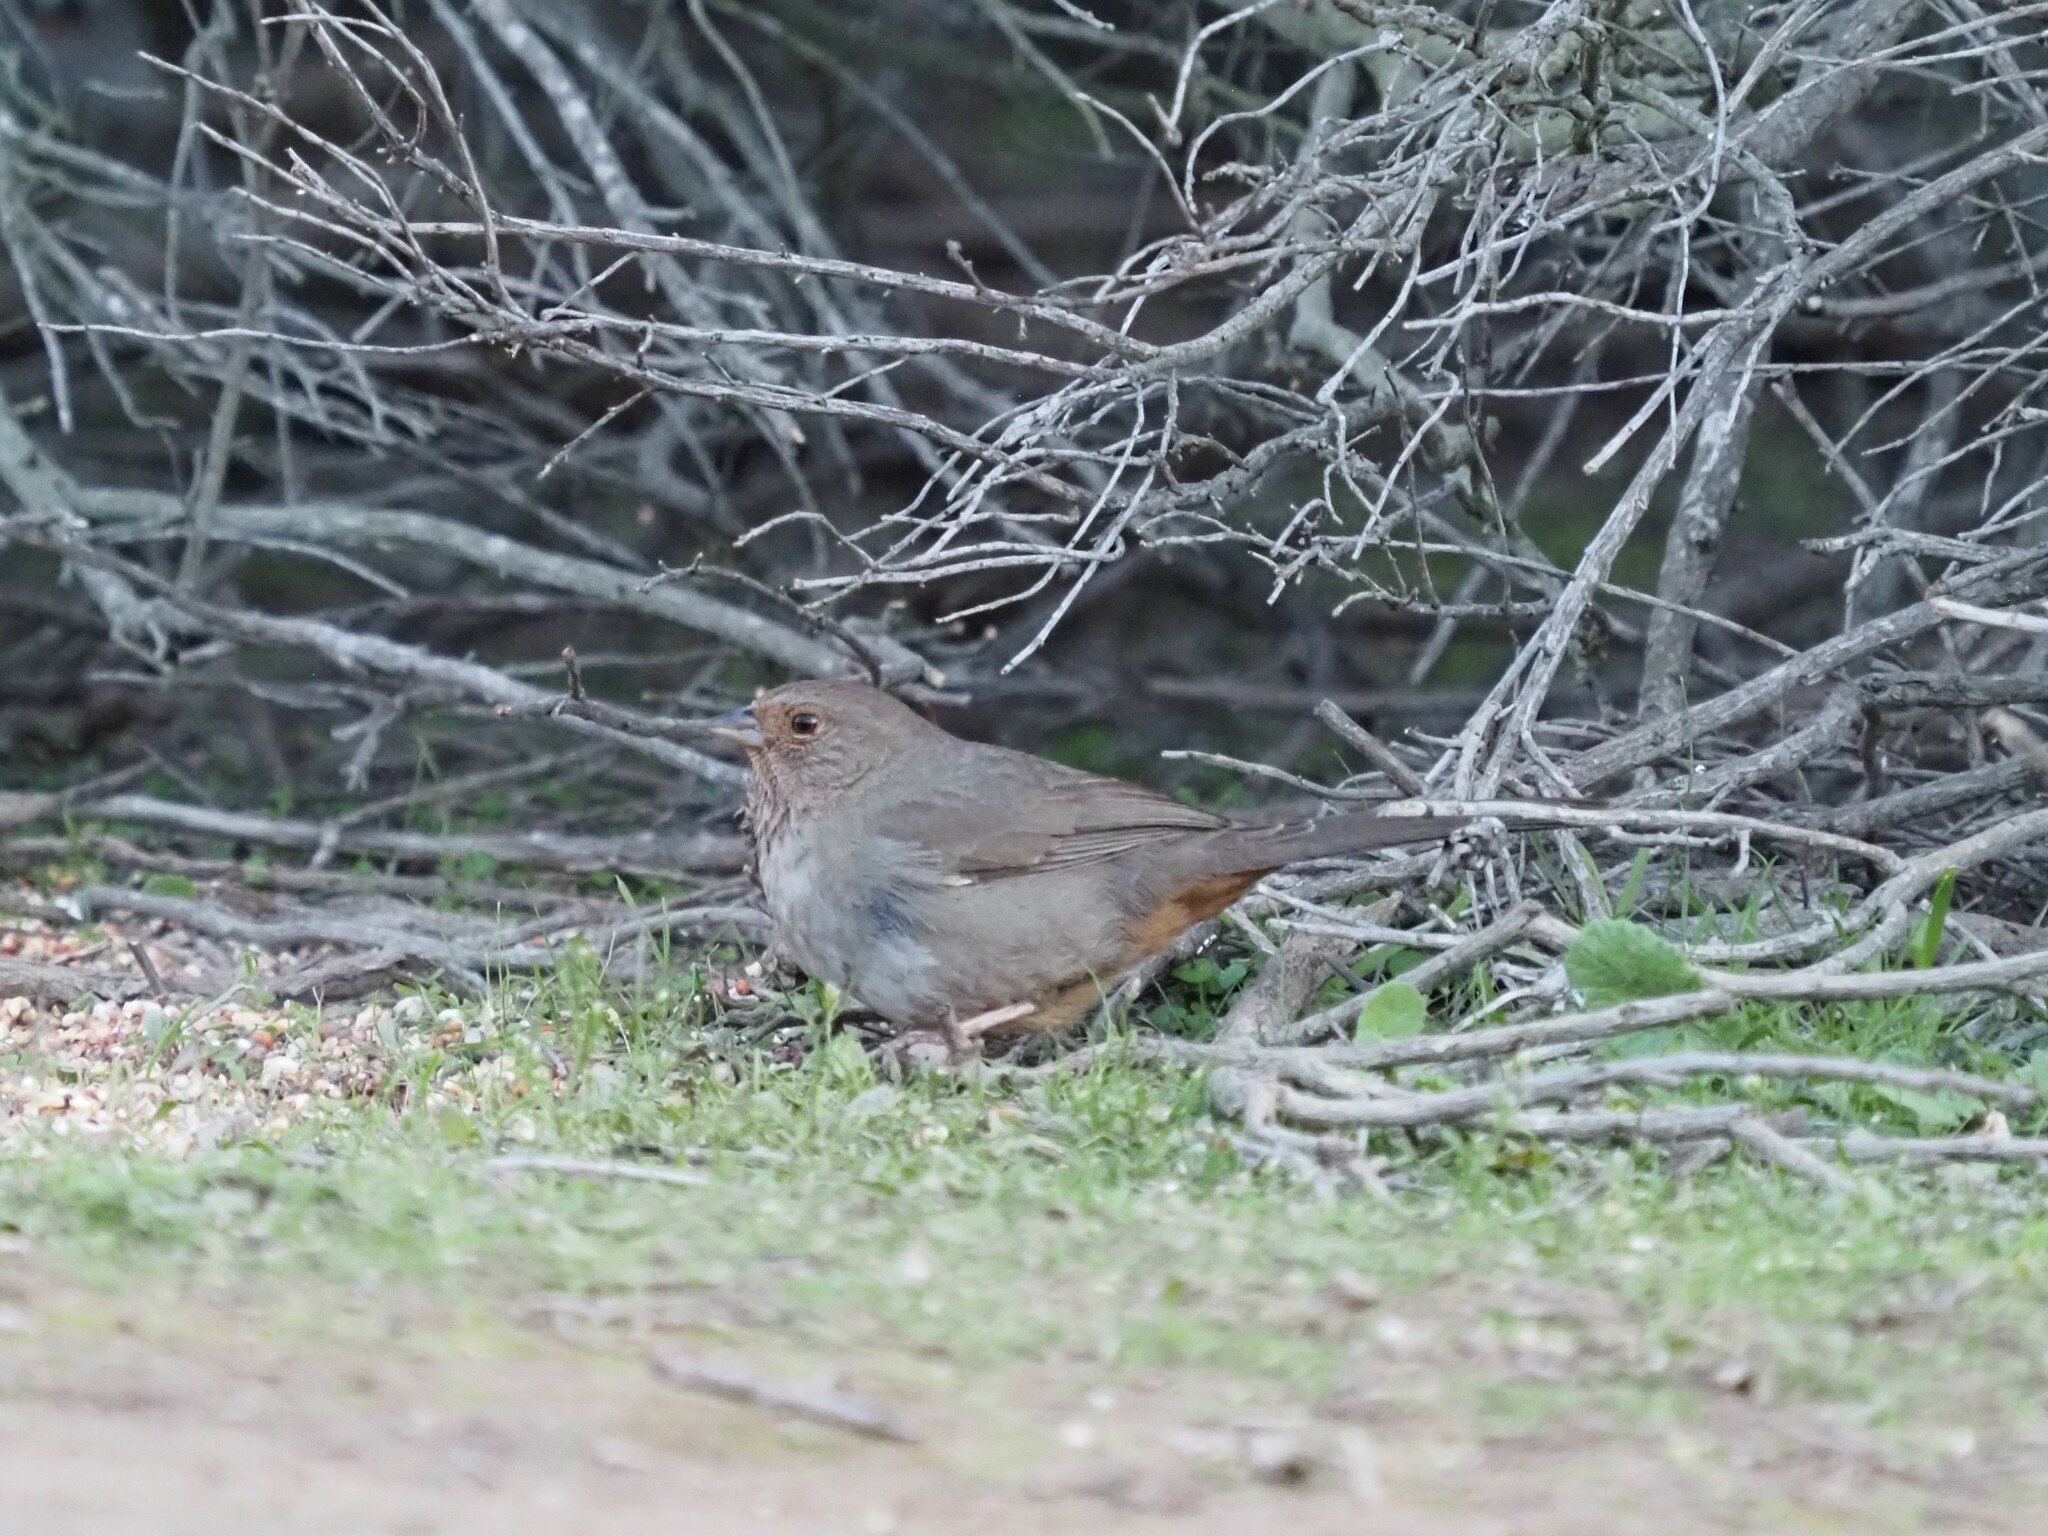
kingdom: Animalia
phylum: Chordata
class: Aves
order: Passeriformes
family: Passerellidae
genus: Melozone
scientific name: Melozone crissalis
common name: California towhee
